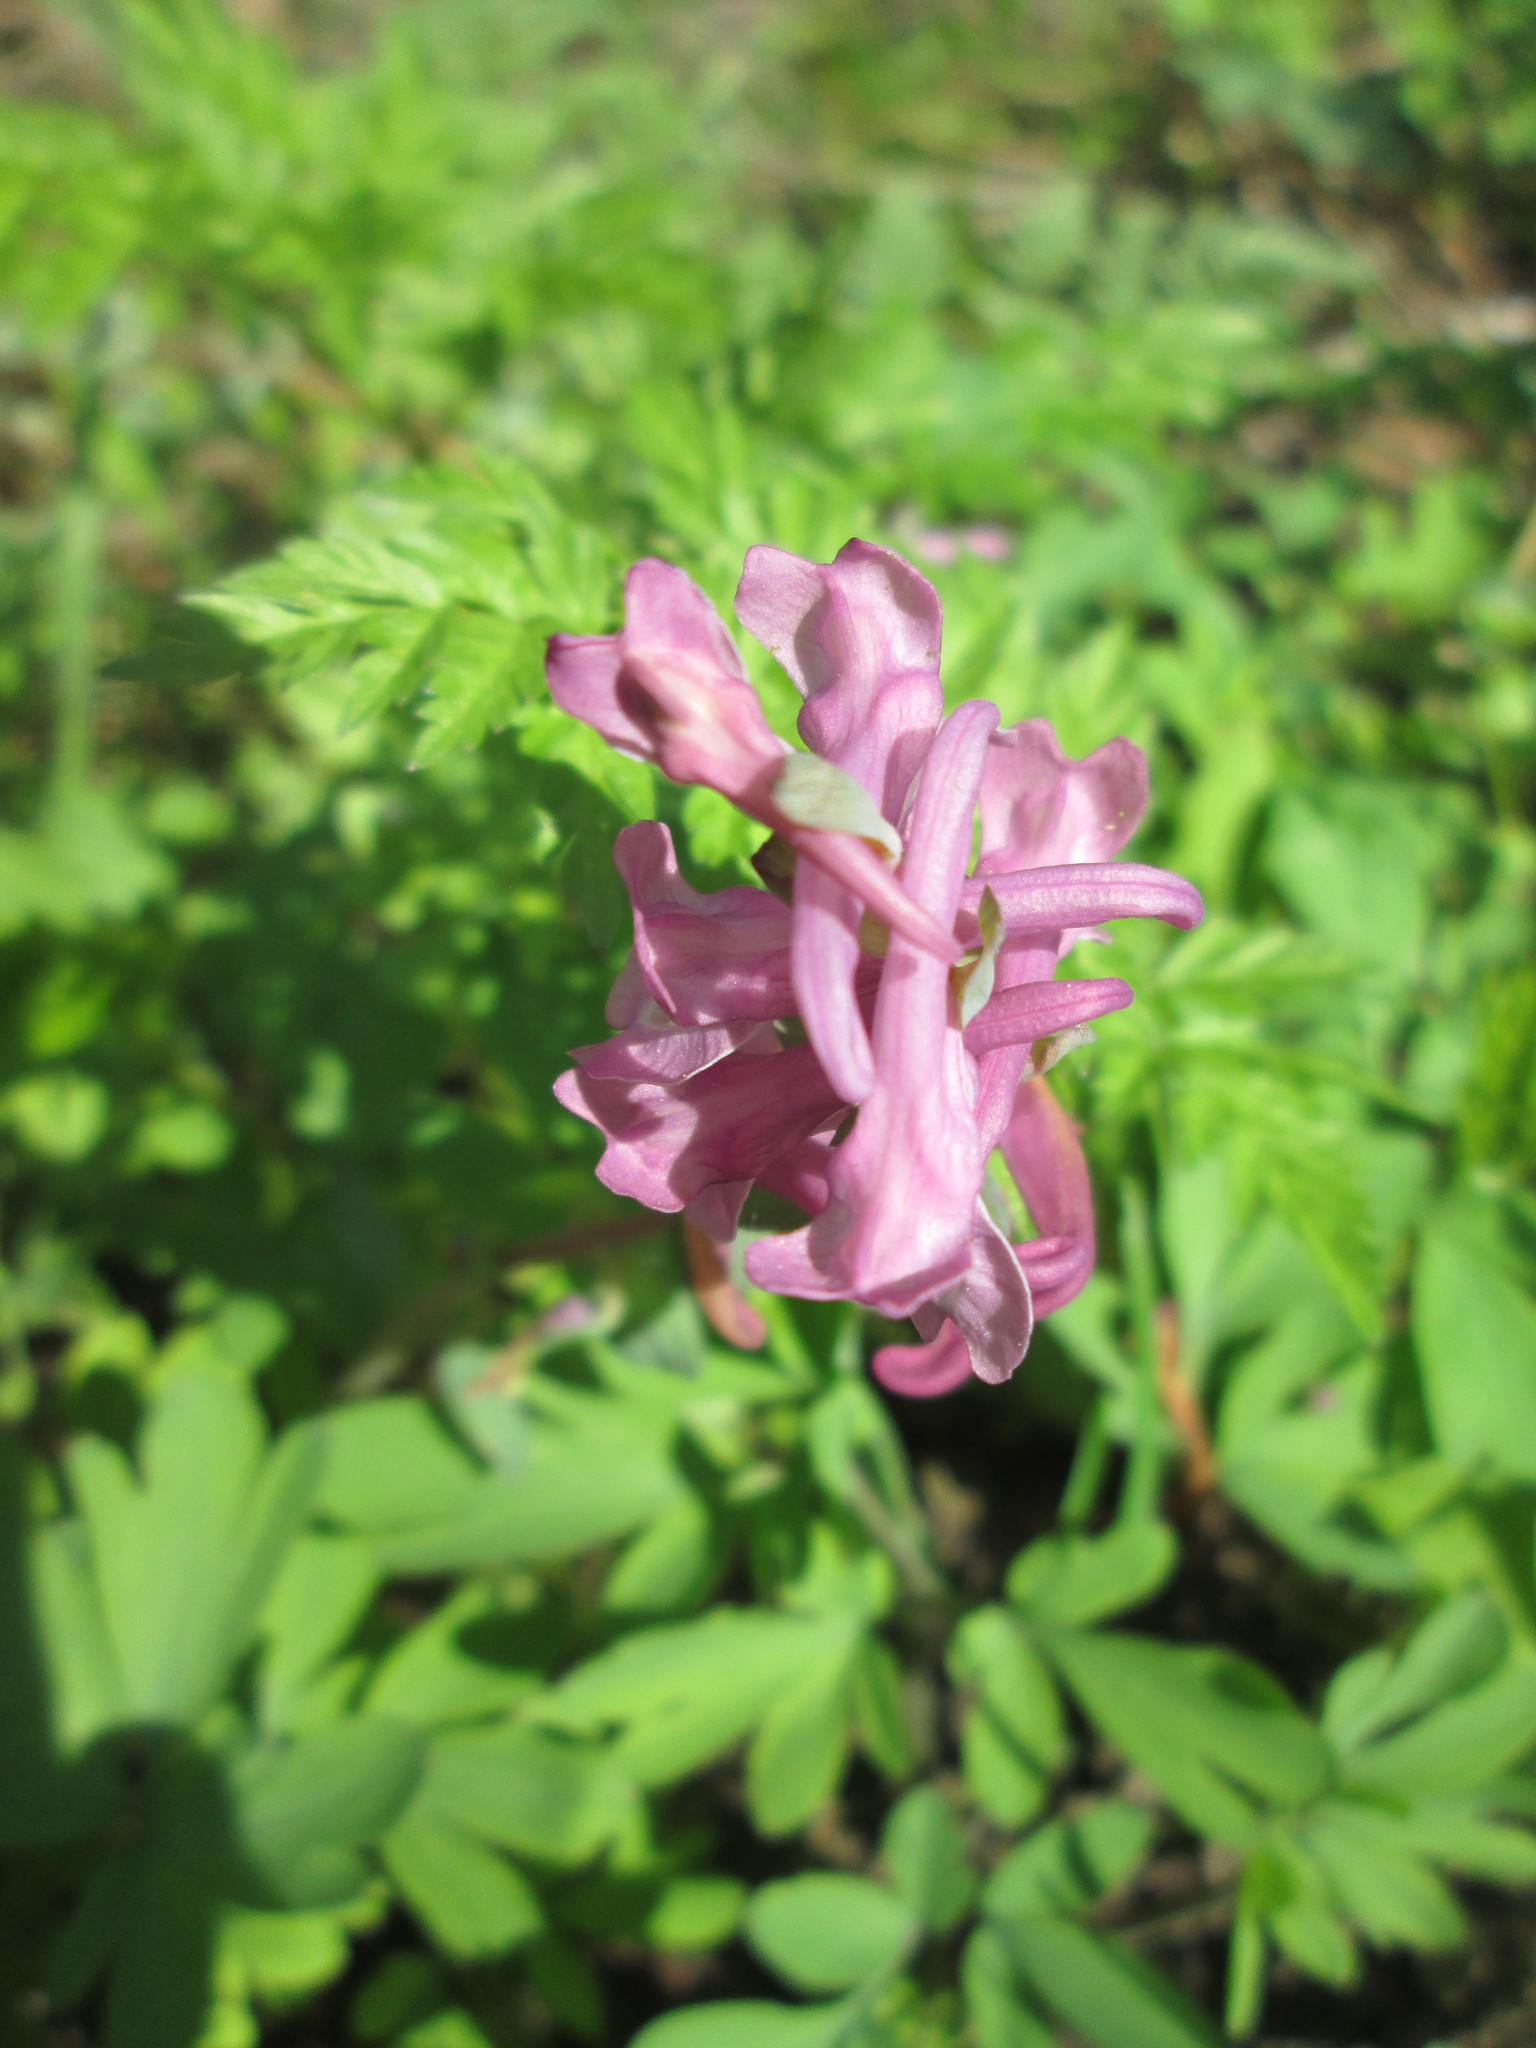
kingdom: Plantae
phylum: Tracheophyta
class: Magnoliopsida
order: Ranunculales
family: Papaveraceae
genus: Corydalis
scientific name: Corydalis cava
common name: Hollowroot
